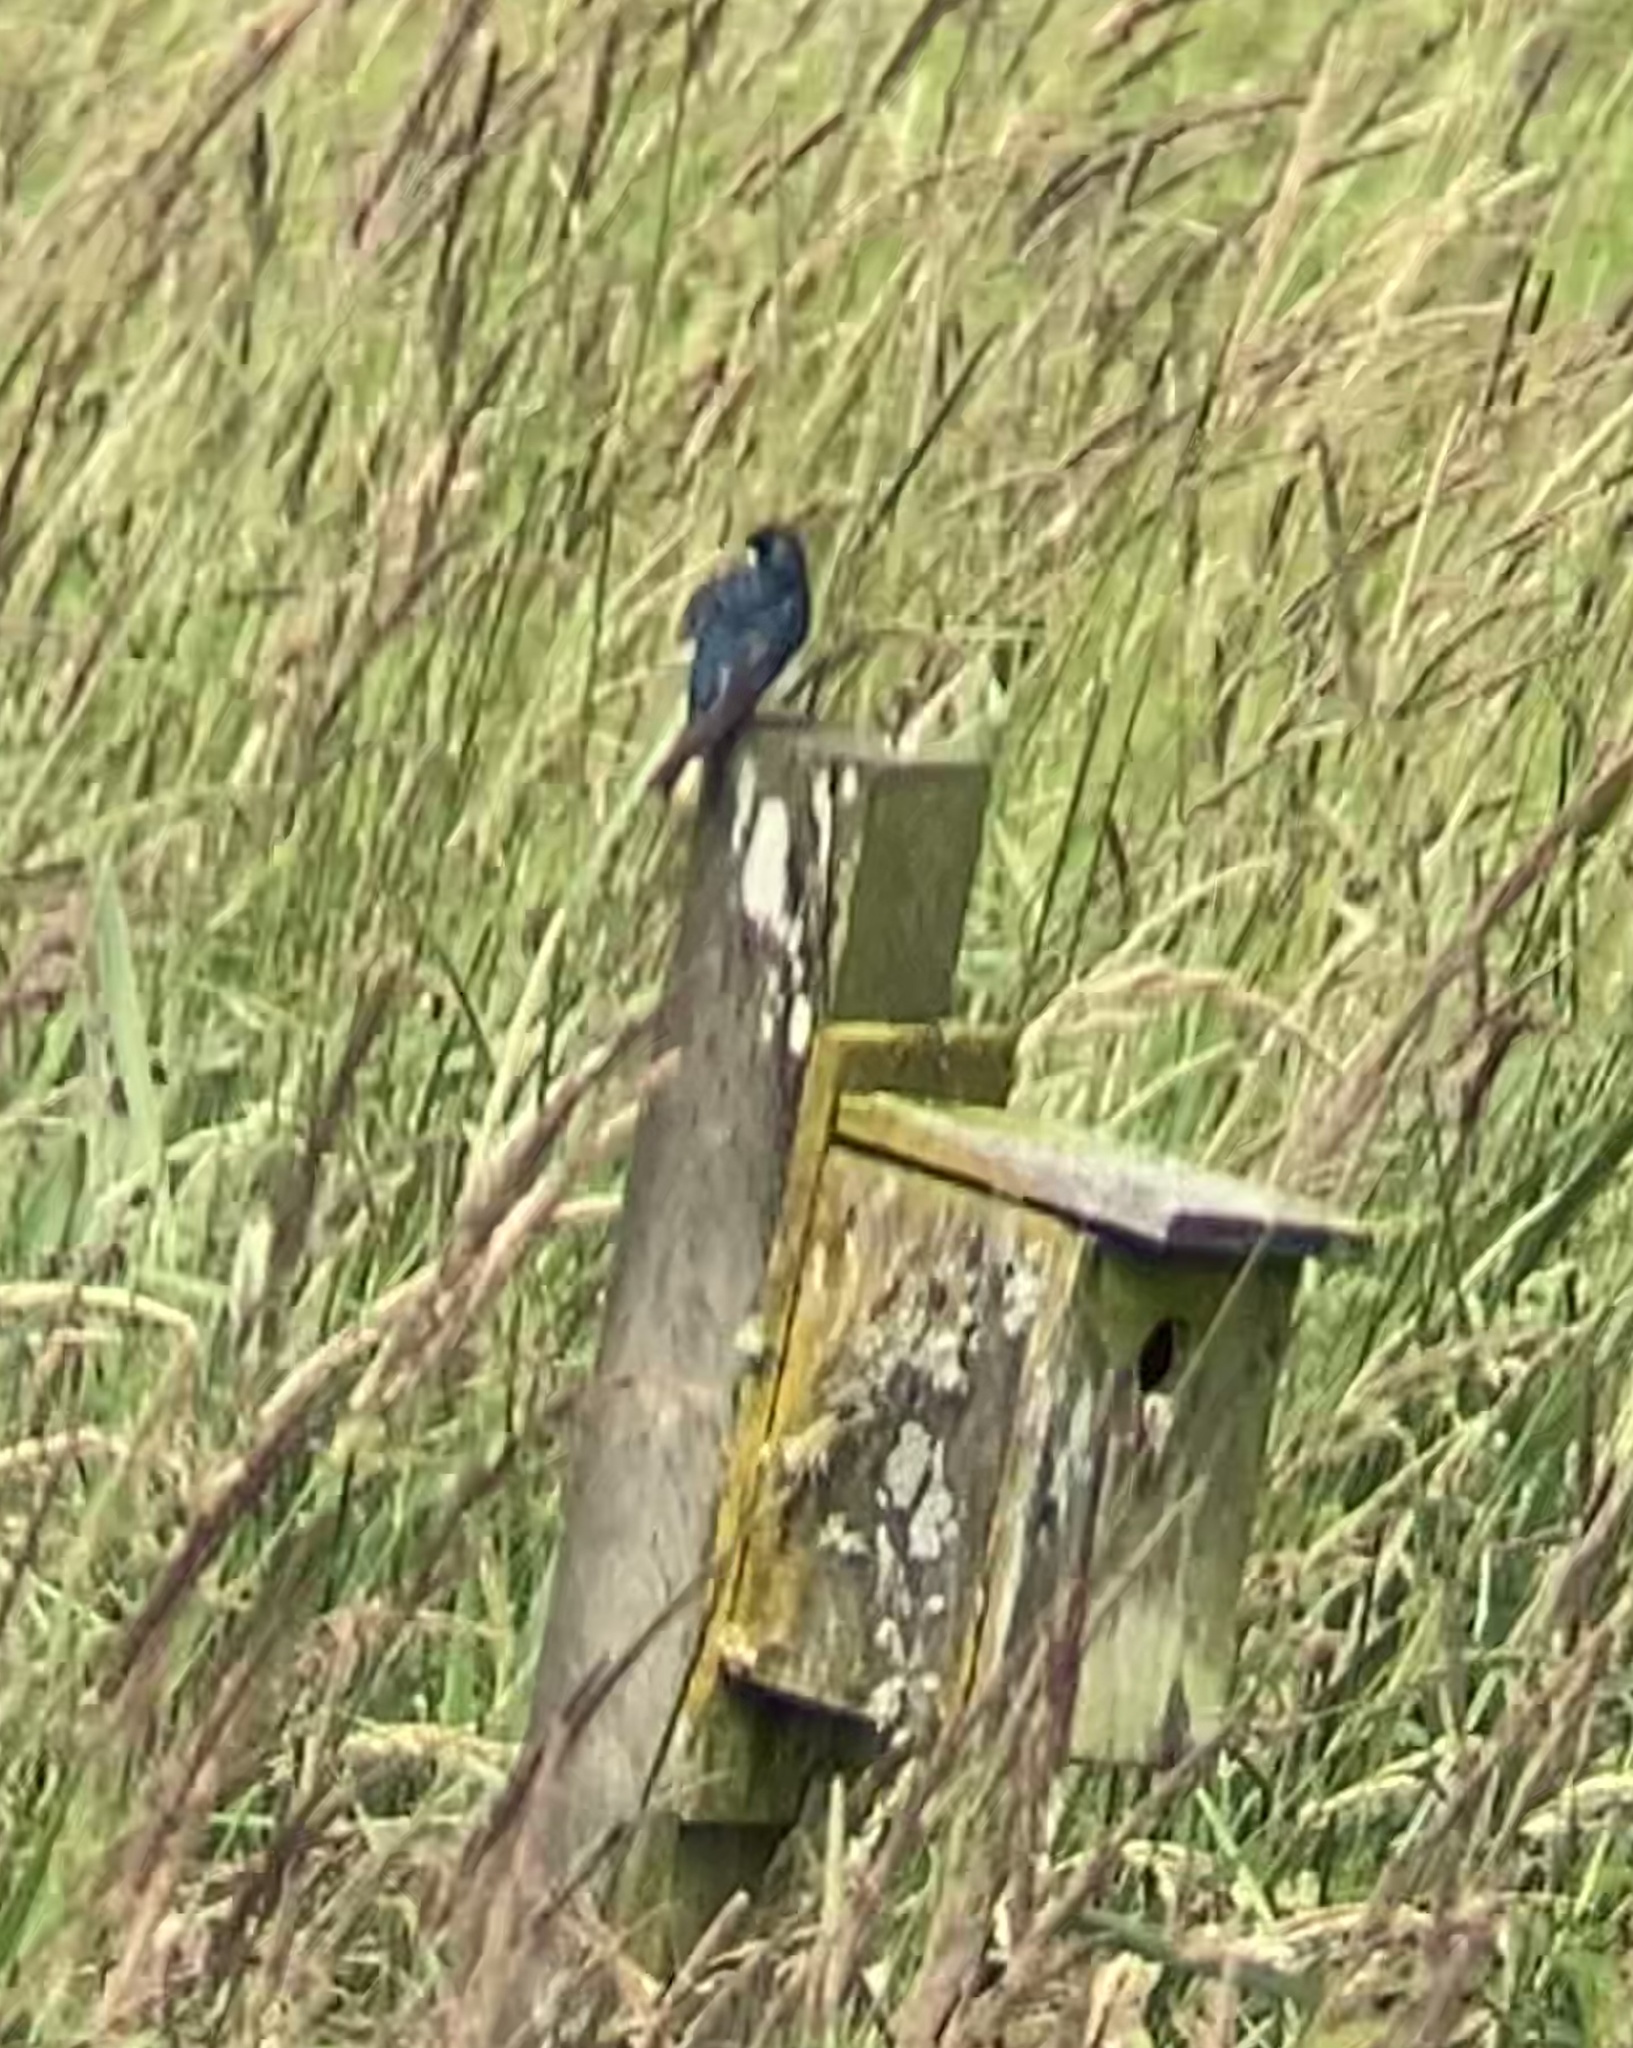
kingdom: Animalia
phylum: Chordata
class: Aves
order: Passeriformes
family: Hirundinidae
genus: Tachycineta
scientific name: Tachycineta bicolor
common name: Tree swallow
